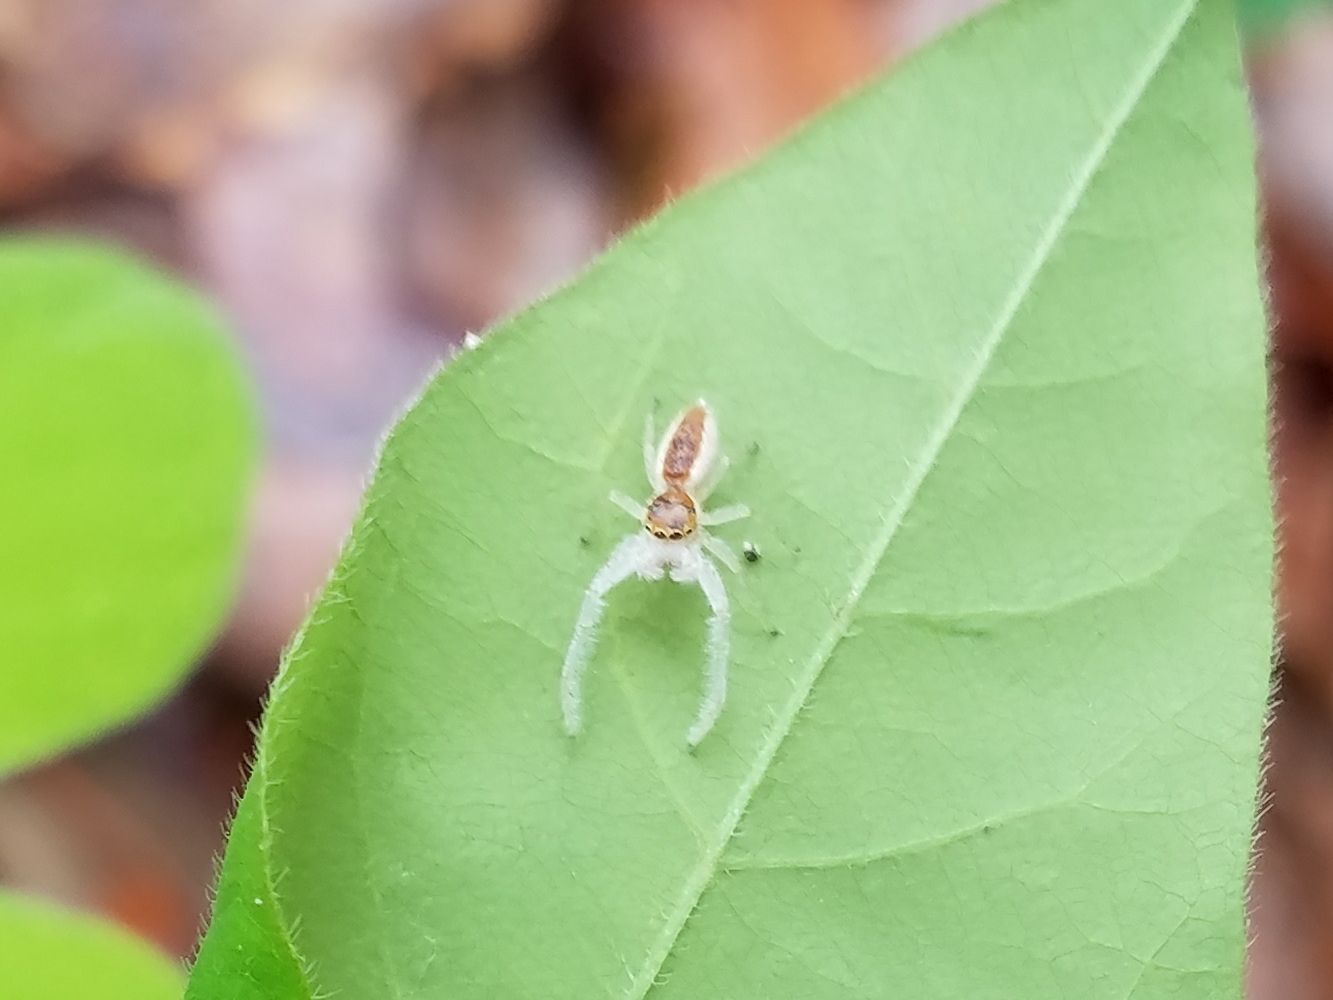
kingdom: Animalia
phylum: Arthropoda
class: Arachnida
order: Araneae
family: Salticidae
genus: Hentzia
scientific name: Hentzia mitrata
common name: White-jawed jumping spider
